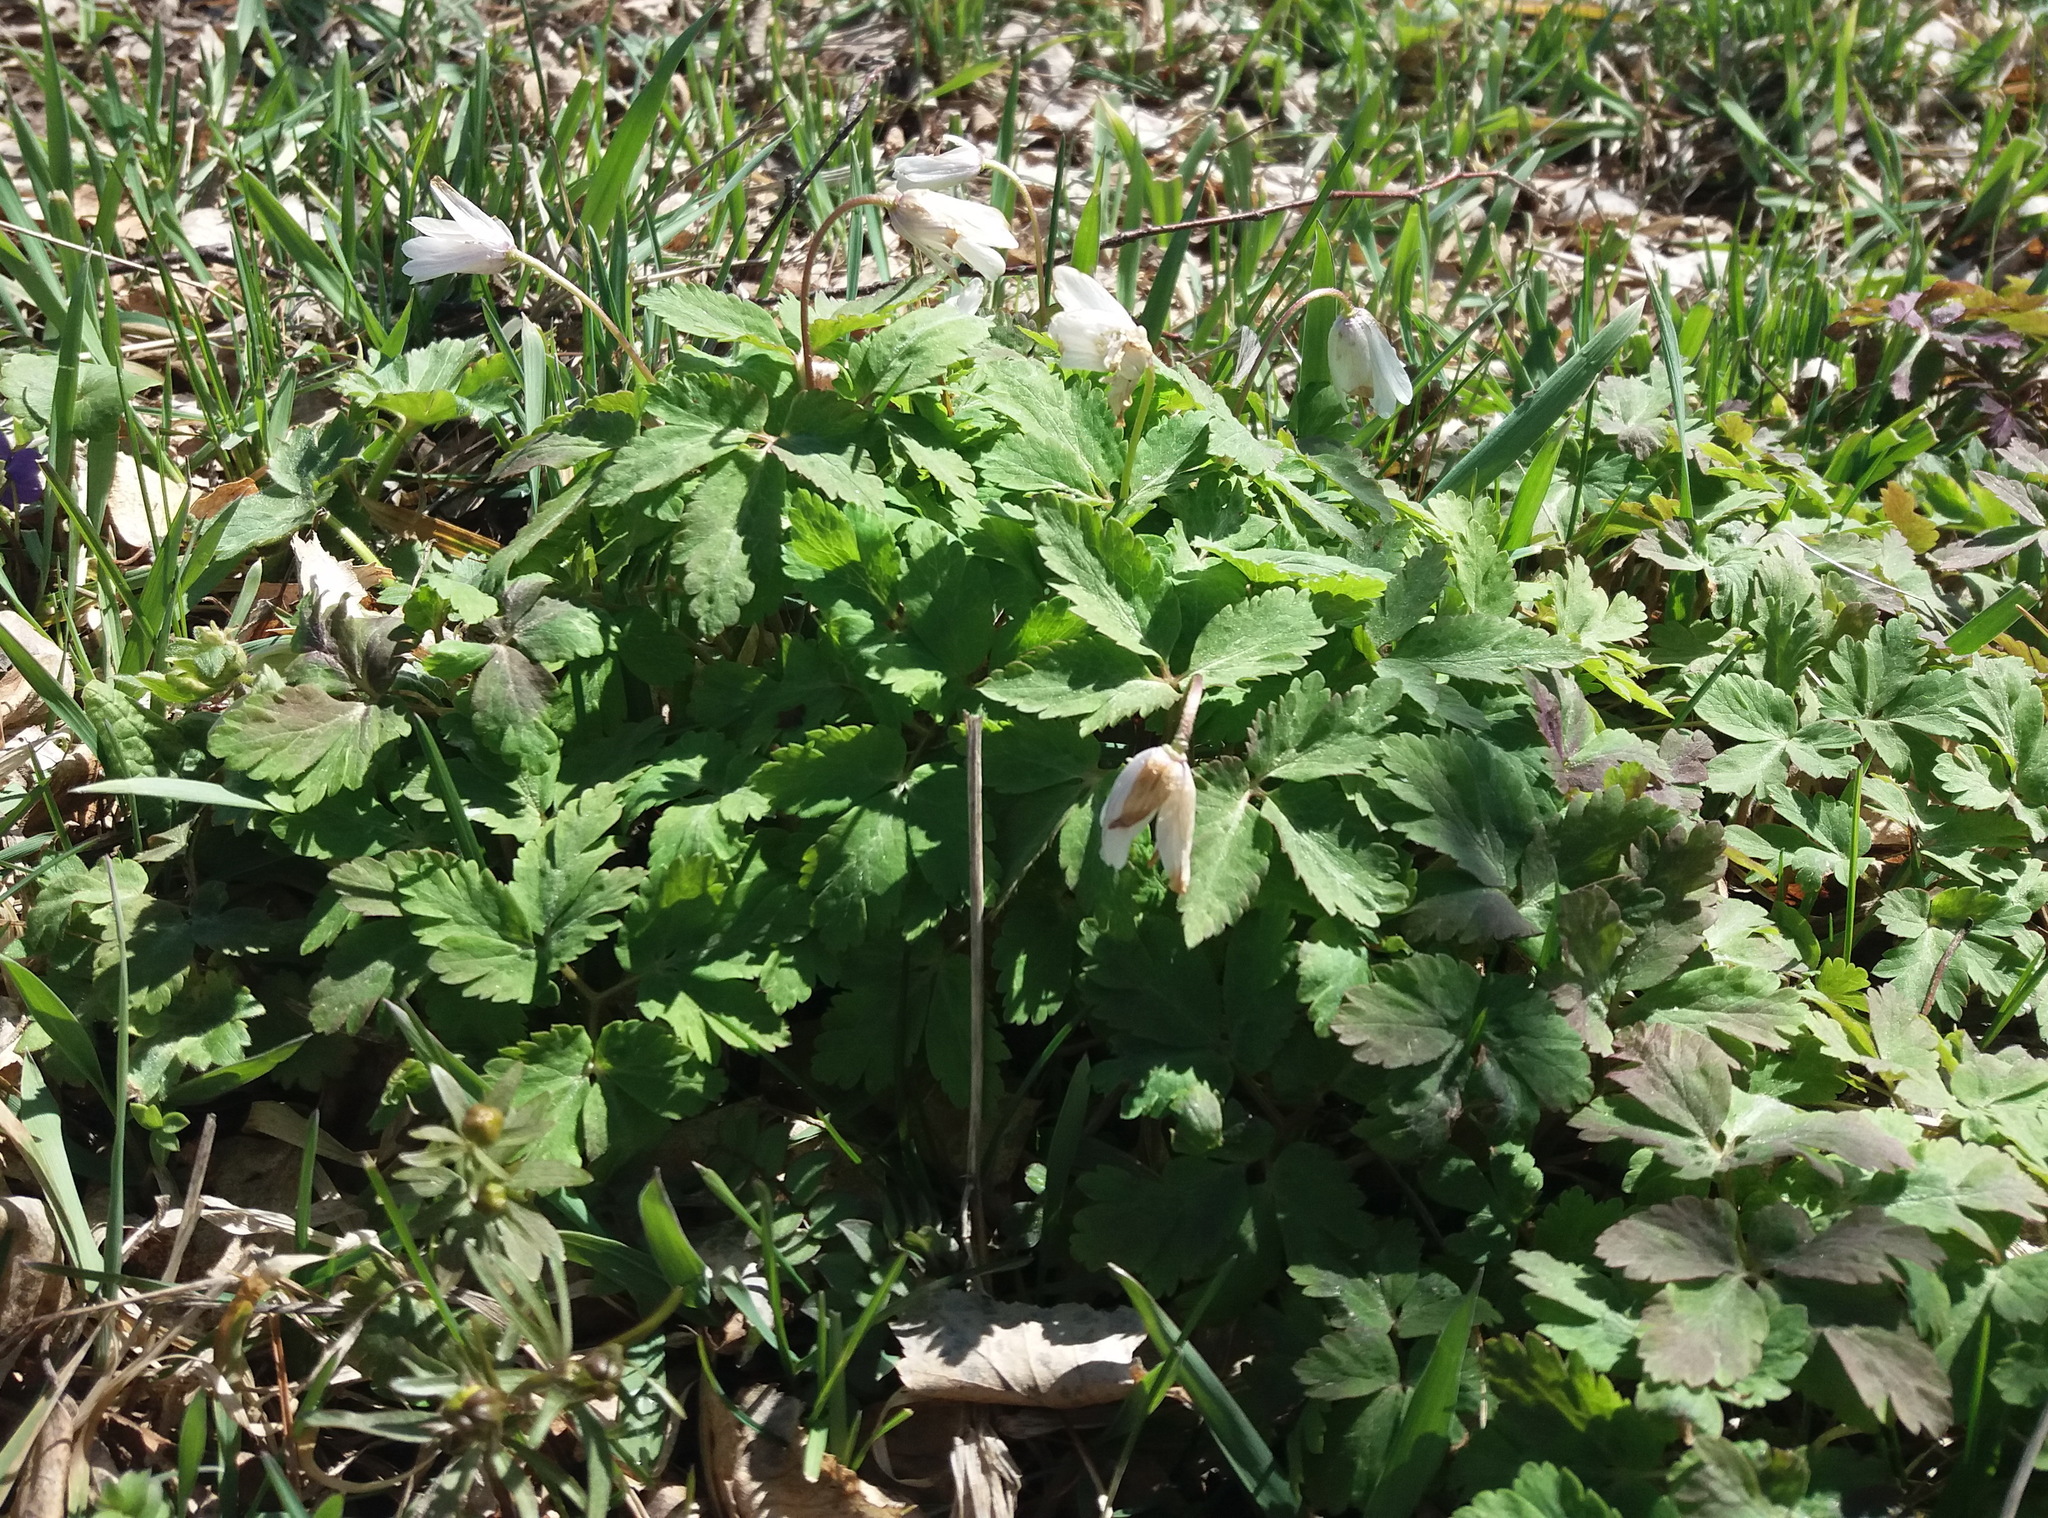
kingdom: Plantae
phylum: Tracheophyta
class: Magnoliopsida
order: Ranunculales
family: Ranunculaceae
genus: Anemone
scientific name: Anemone altaica
